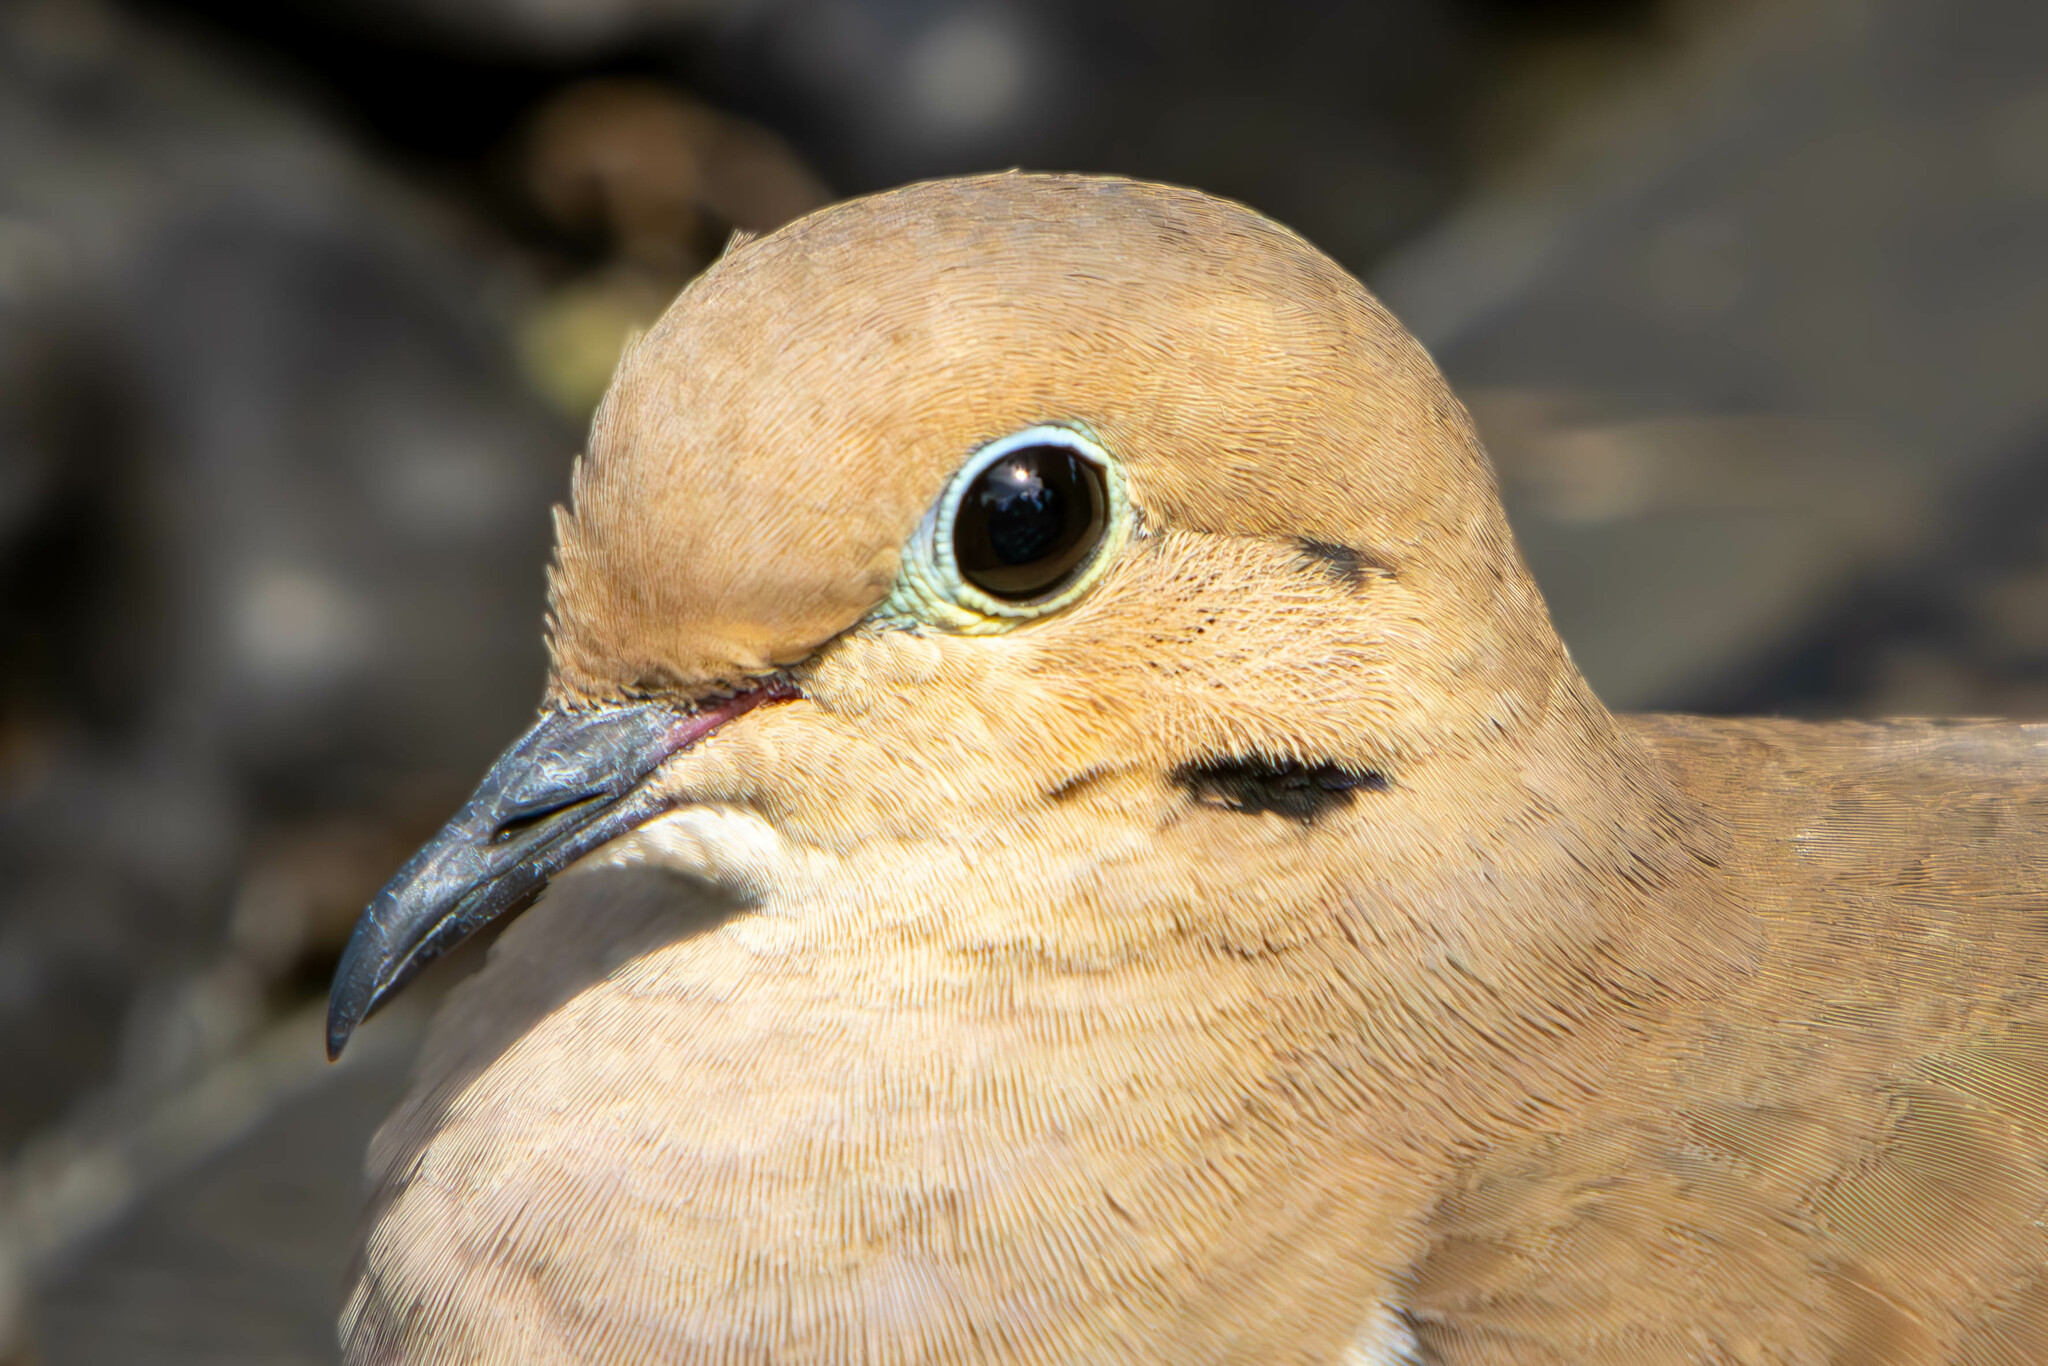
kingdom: Animalia
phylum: Chordata
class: Aves
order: Columbiformes
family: Columbidae
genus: Zenaida
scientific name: Zenaida macroura
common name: Mourning dove
